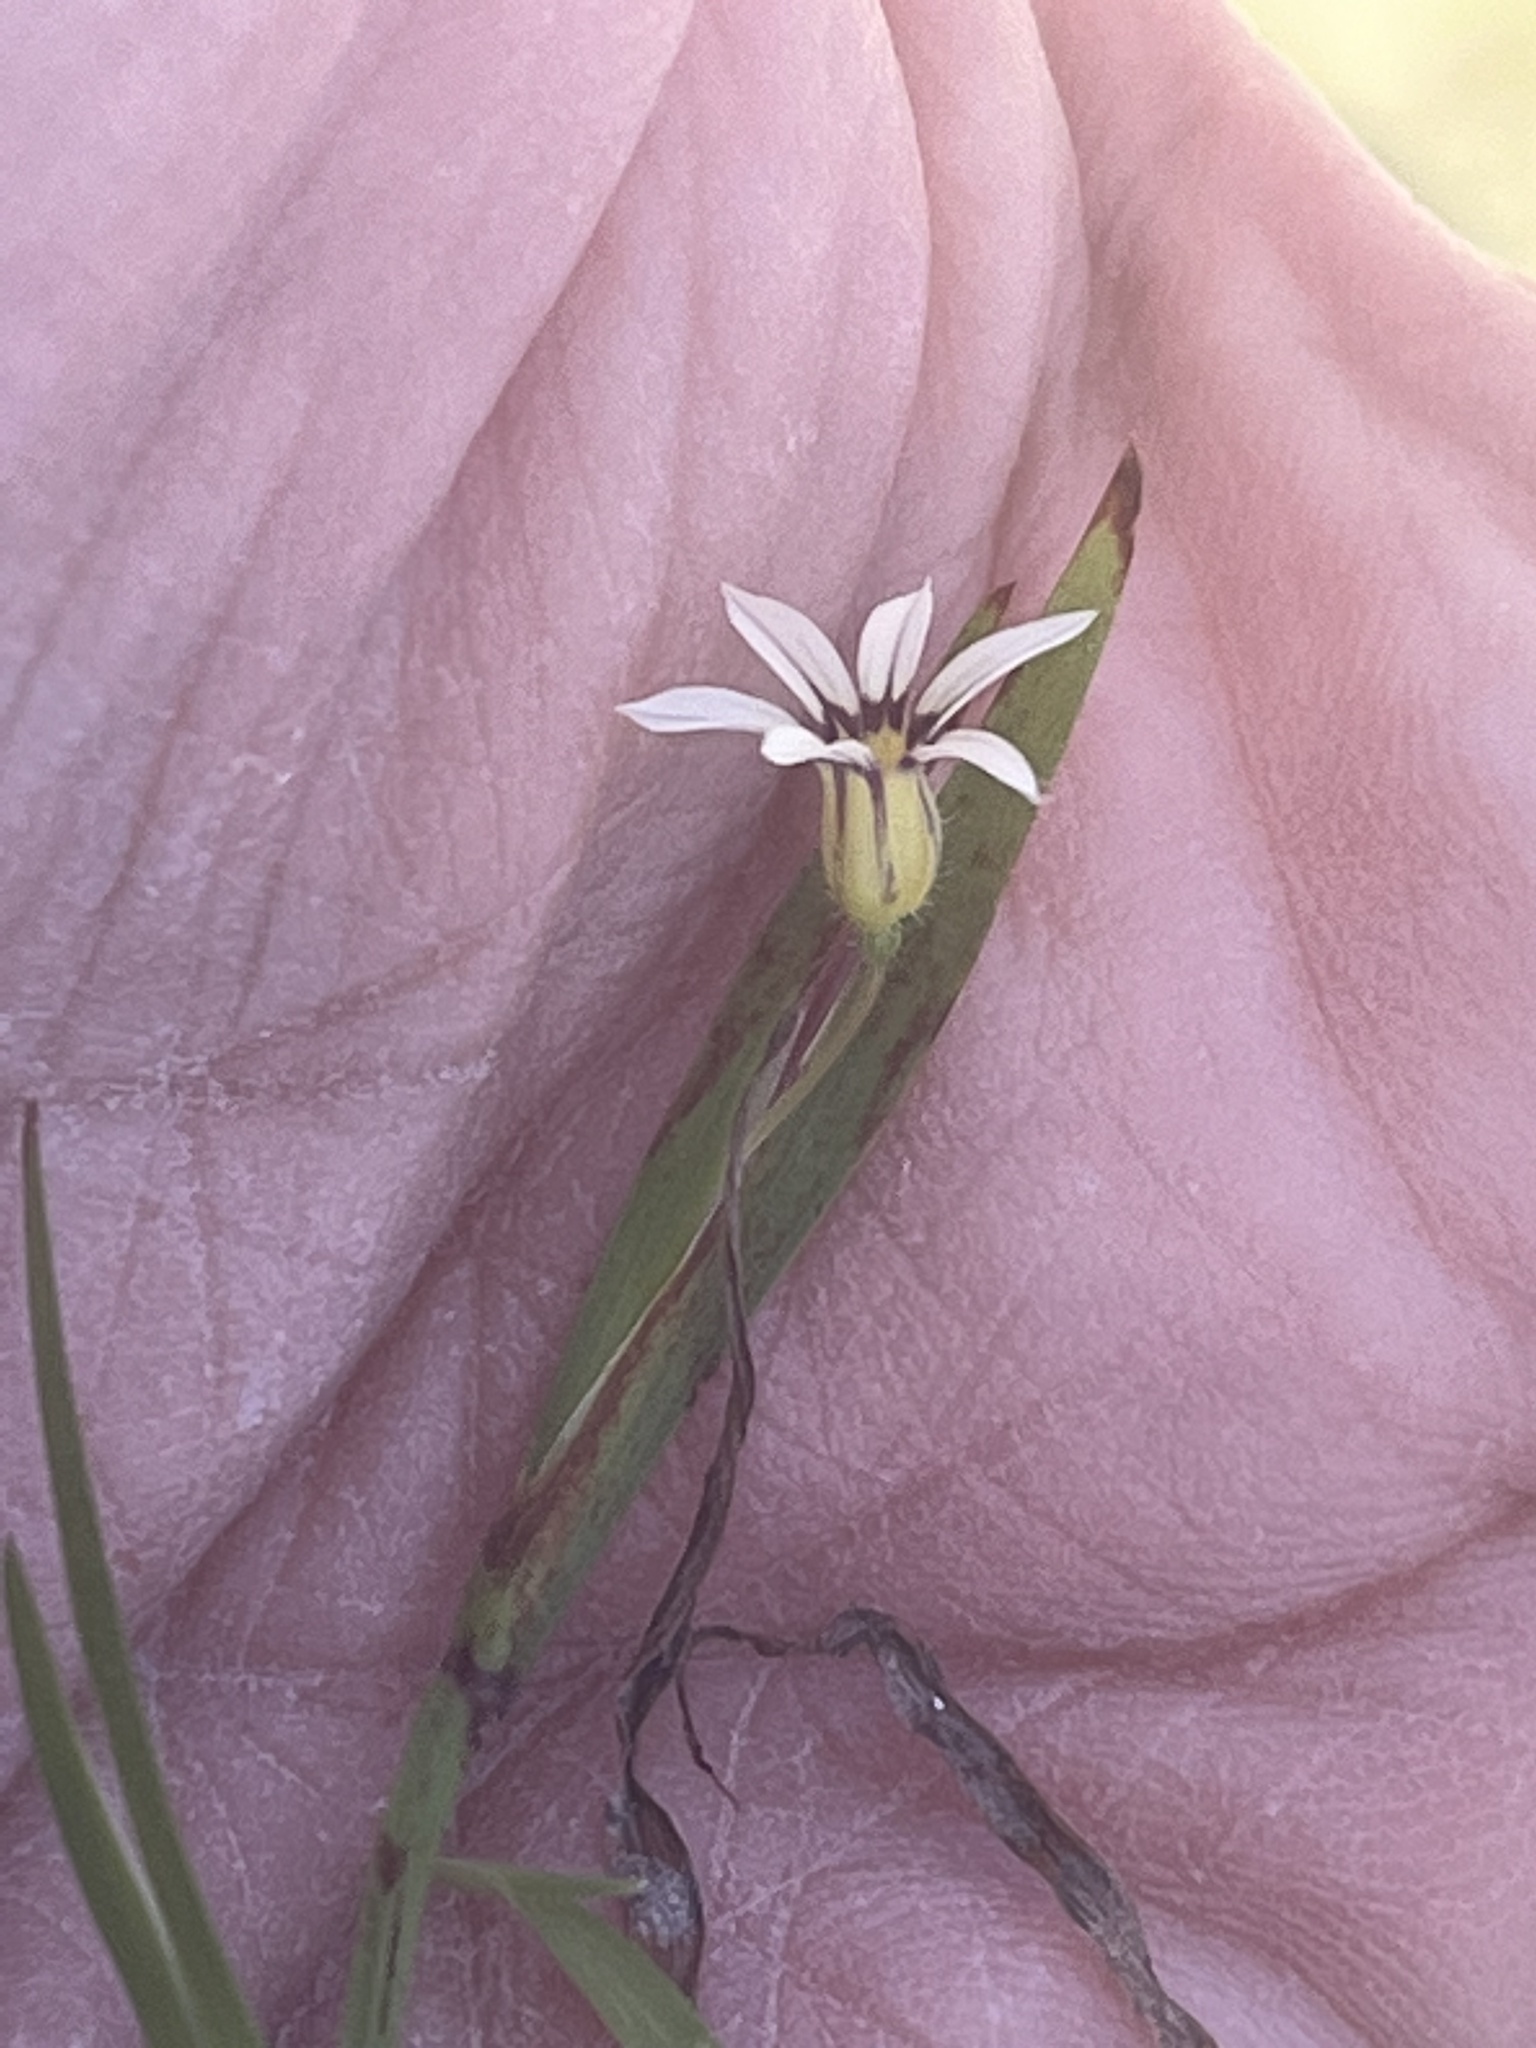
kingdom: Plantae
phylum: Tracheophyta
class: Liliopsida
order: Asparagales
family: Iridaceae
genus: Sisyrinchium
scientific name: Sisyrinchium micranthum
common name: Bermuda pigroot
